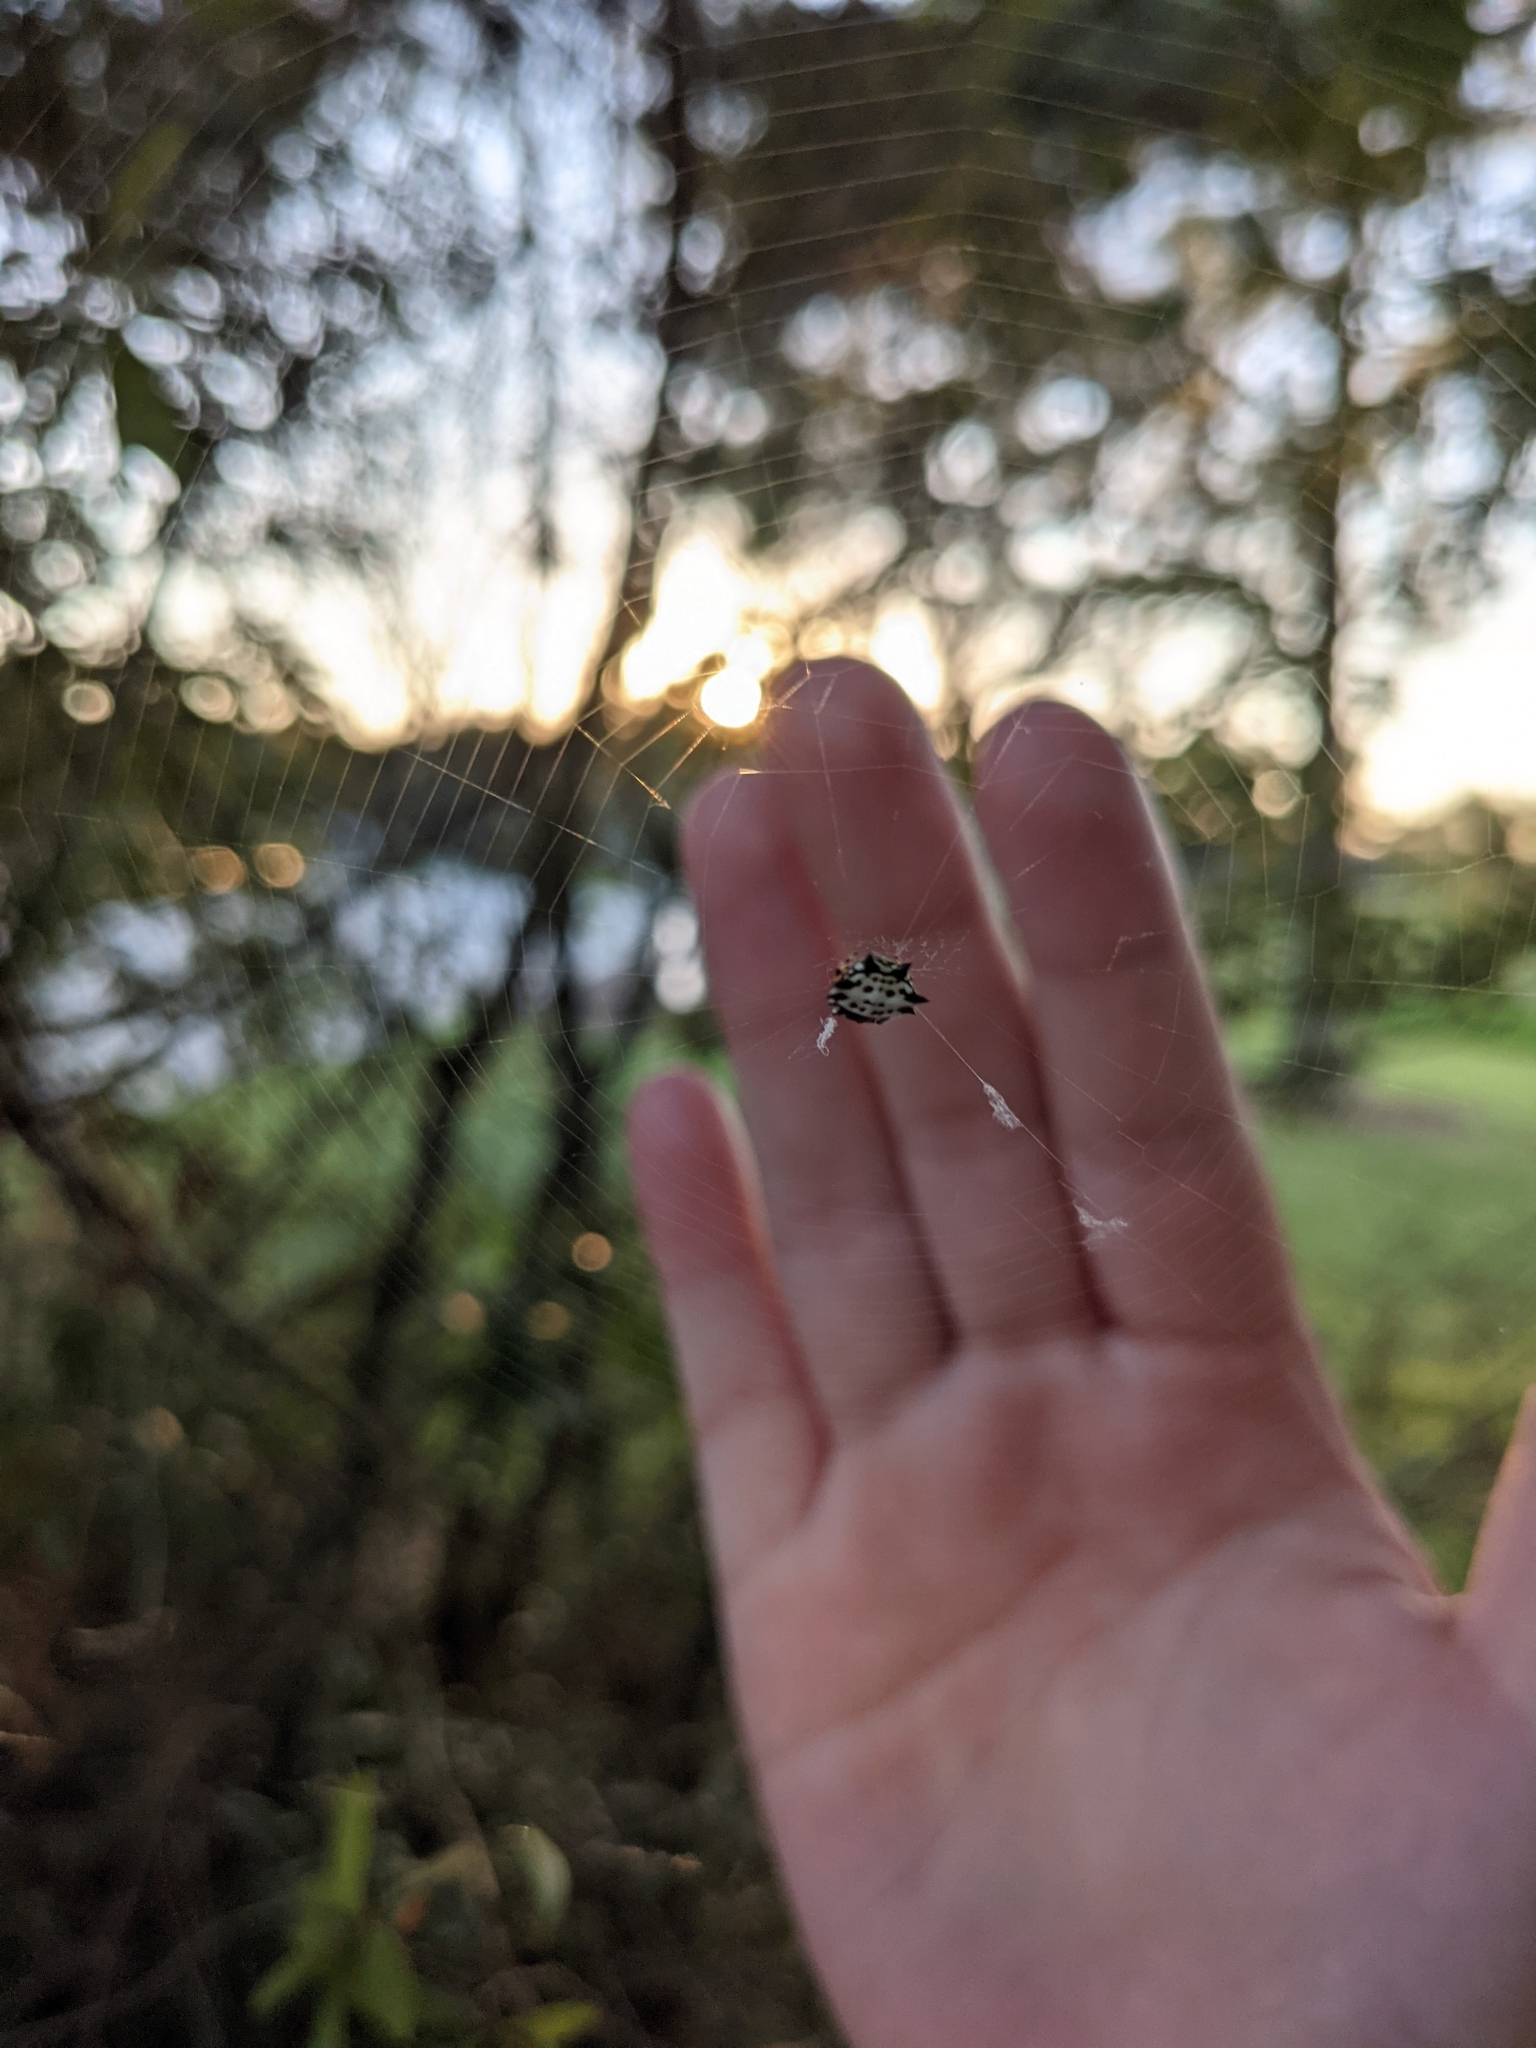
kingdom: Animalia
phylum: Arthropoda
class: Arachnida
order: Araneae
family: Araneidae
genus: Gasteracantha
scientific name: Gasteracantha cancriformis
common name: Orb weavers
